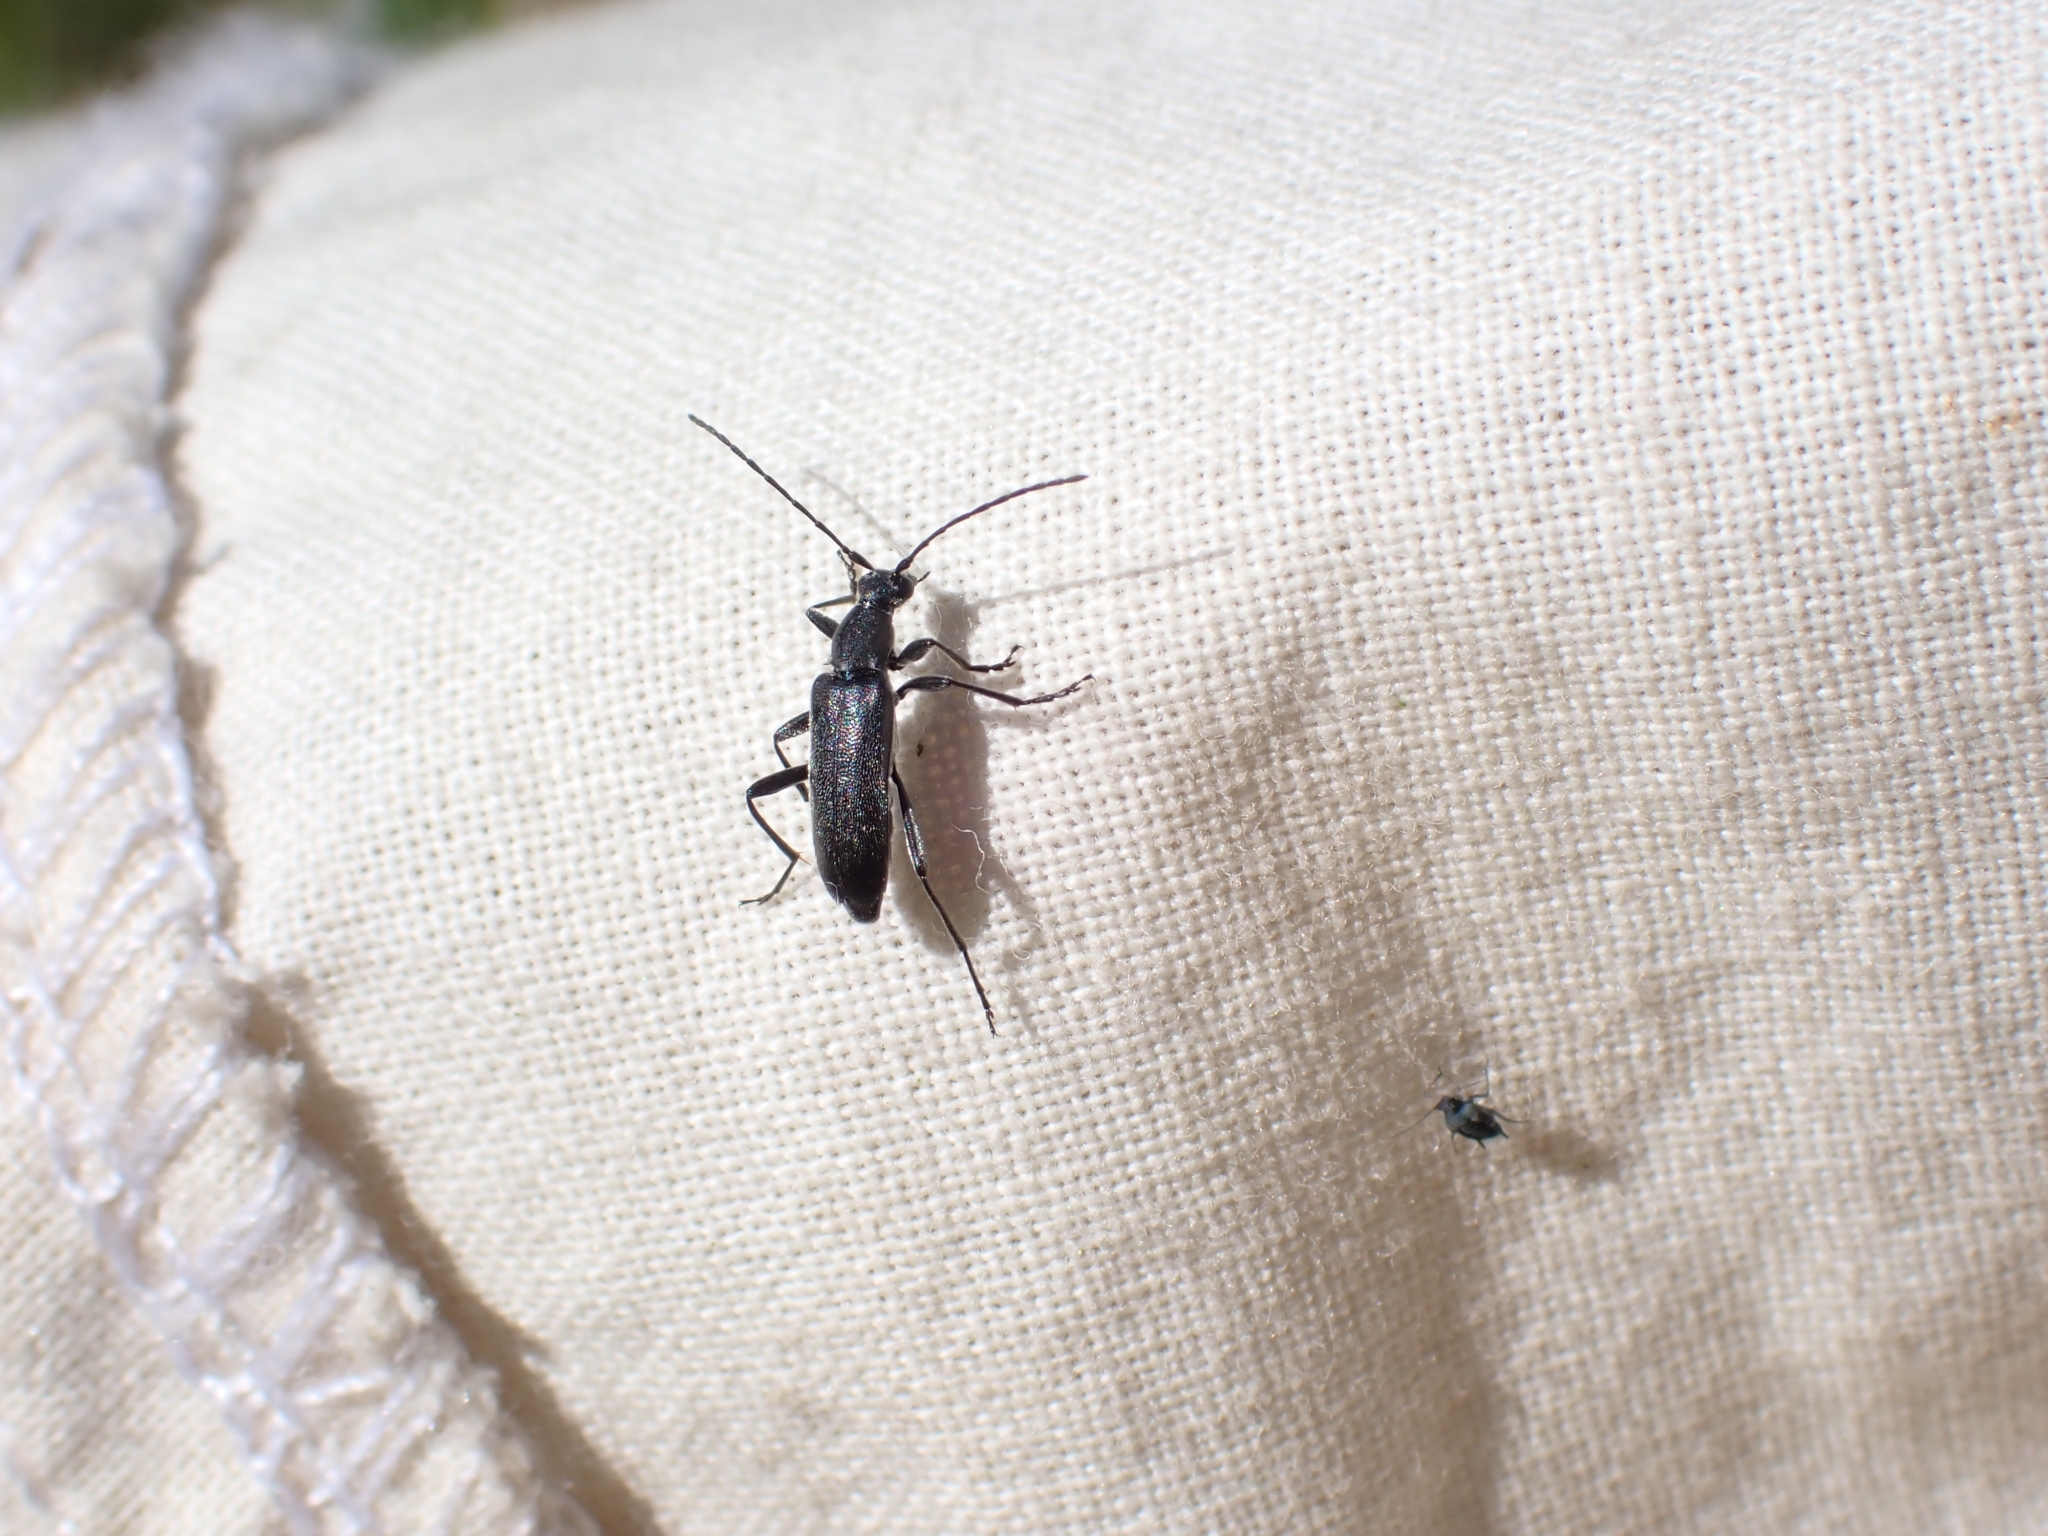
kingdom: Animalia
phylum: Arthropoda
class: Insecta
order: Coleoptera
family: Cerambycidae
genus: Grammoptera
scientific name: Grammoptera subargentata
